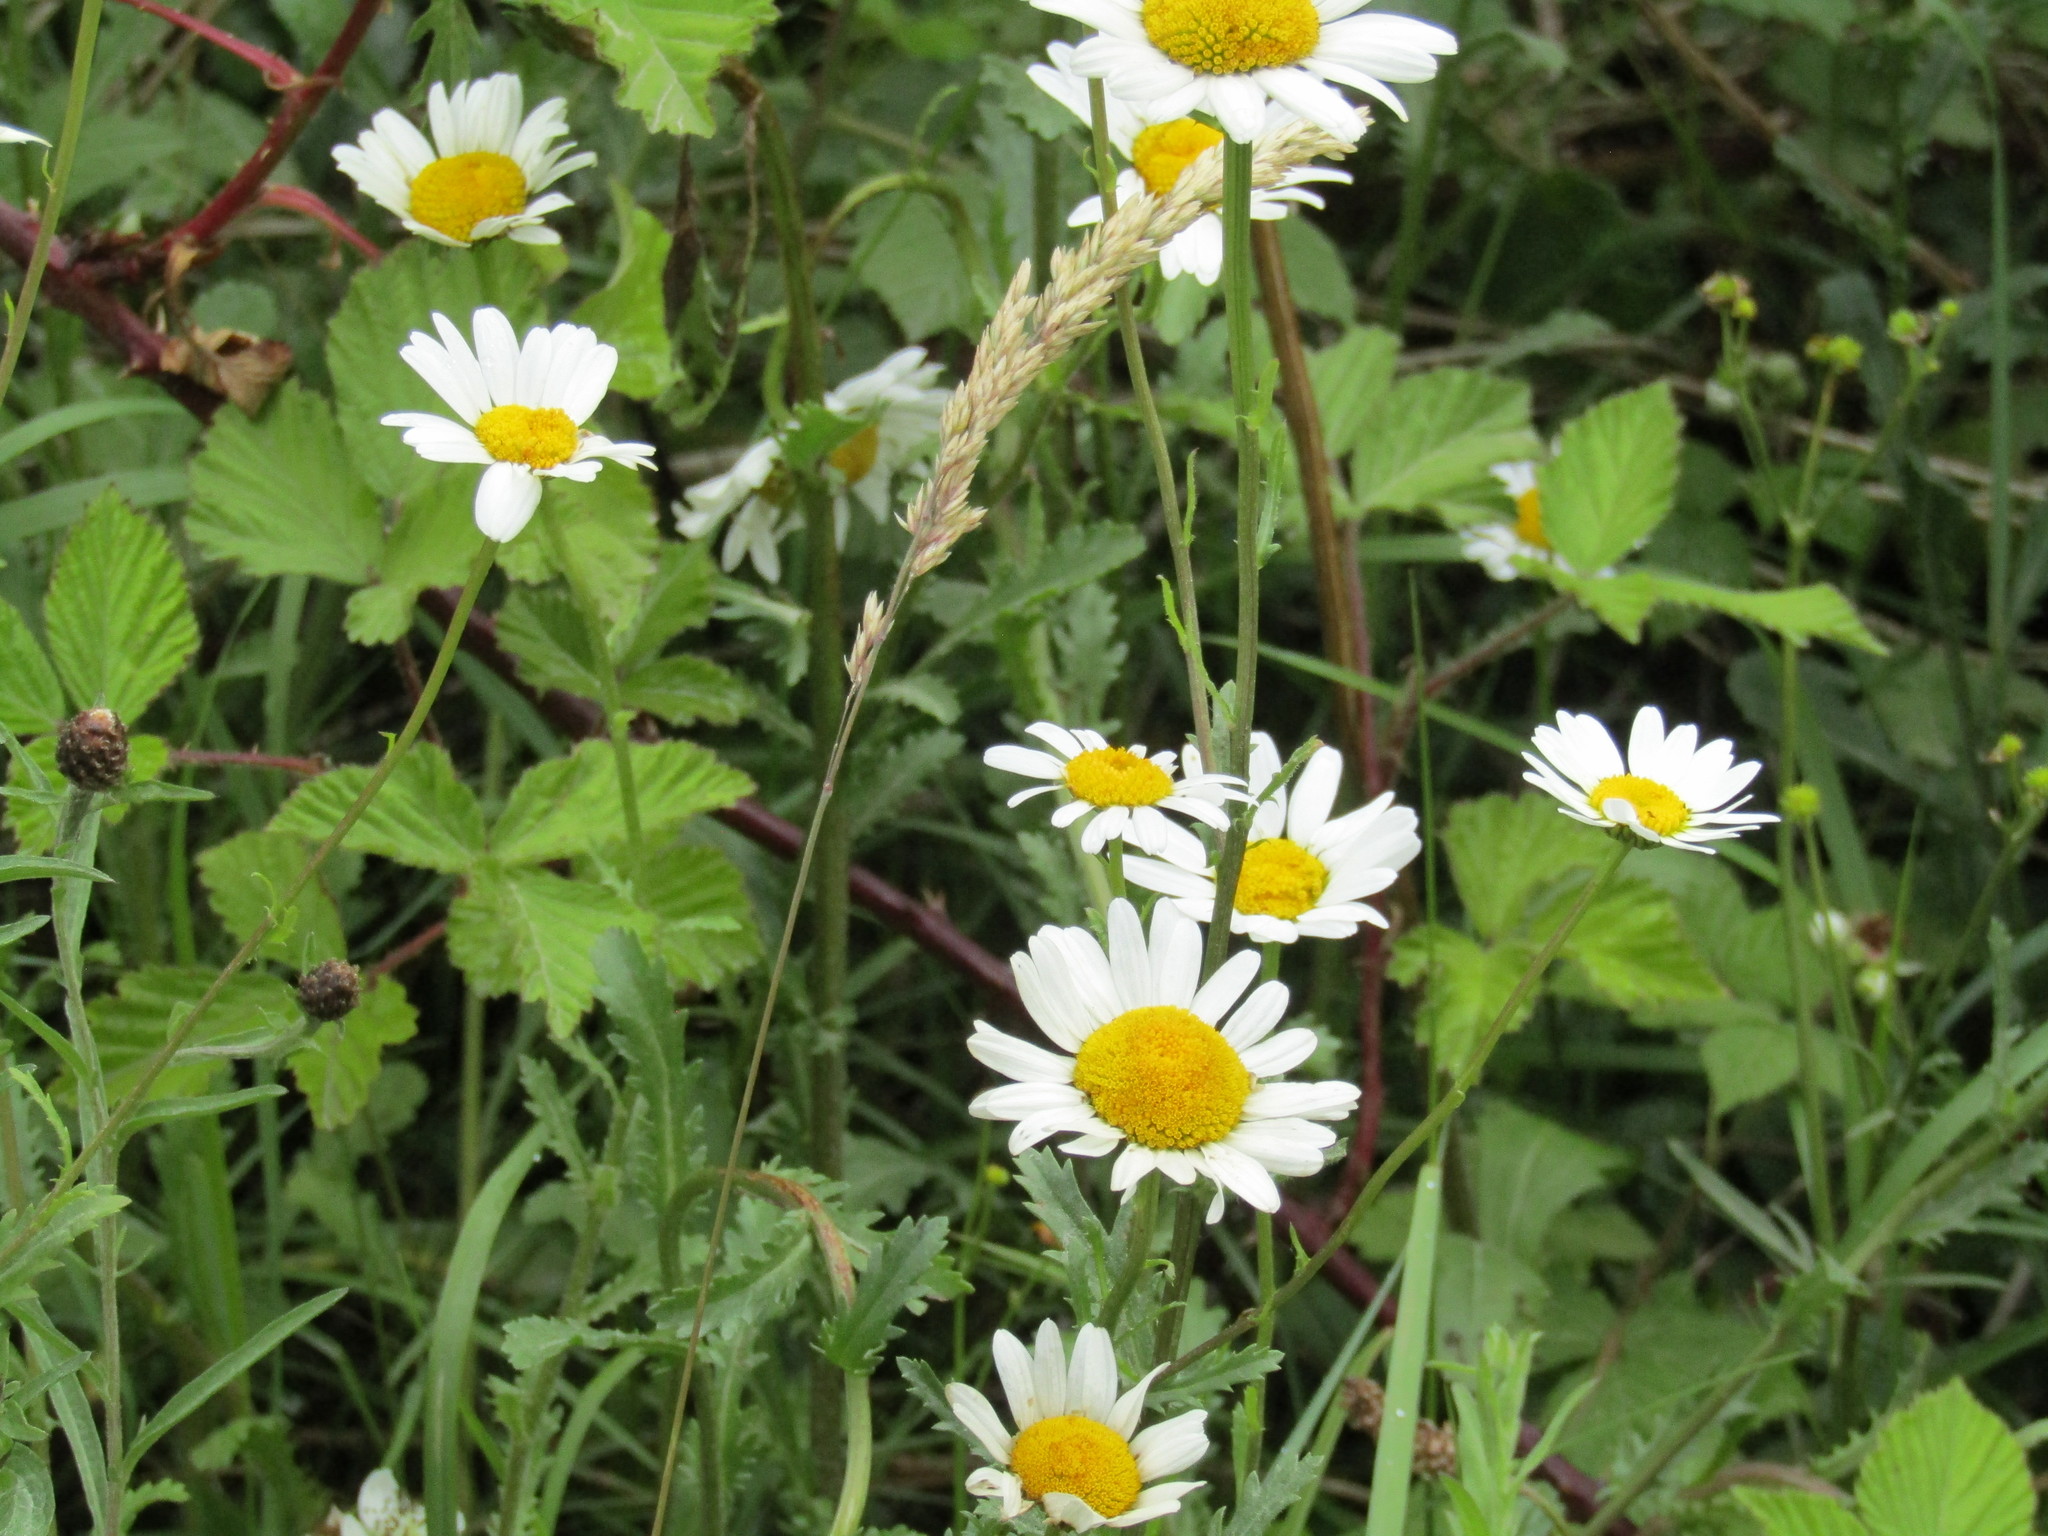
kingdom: Plantae
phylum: Tracheophyta
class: Magnoliopsida
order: Asterales
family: Asteraceae
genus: Leucanthemum
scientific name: Leucanthemum vulgare
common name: Oxeye daisy
